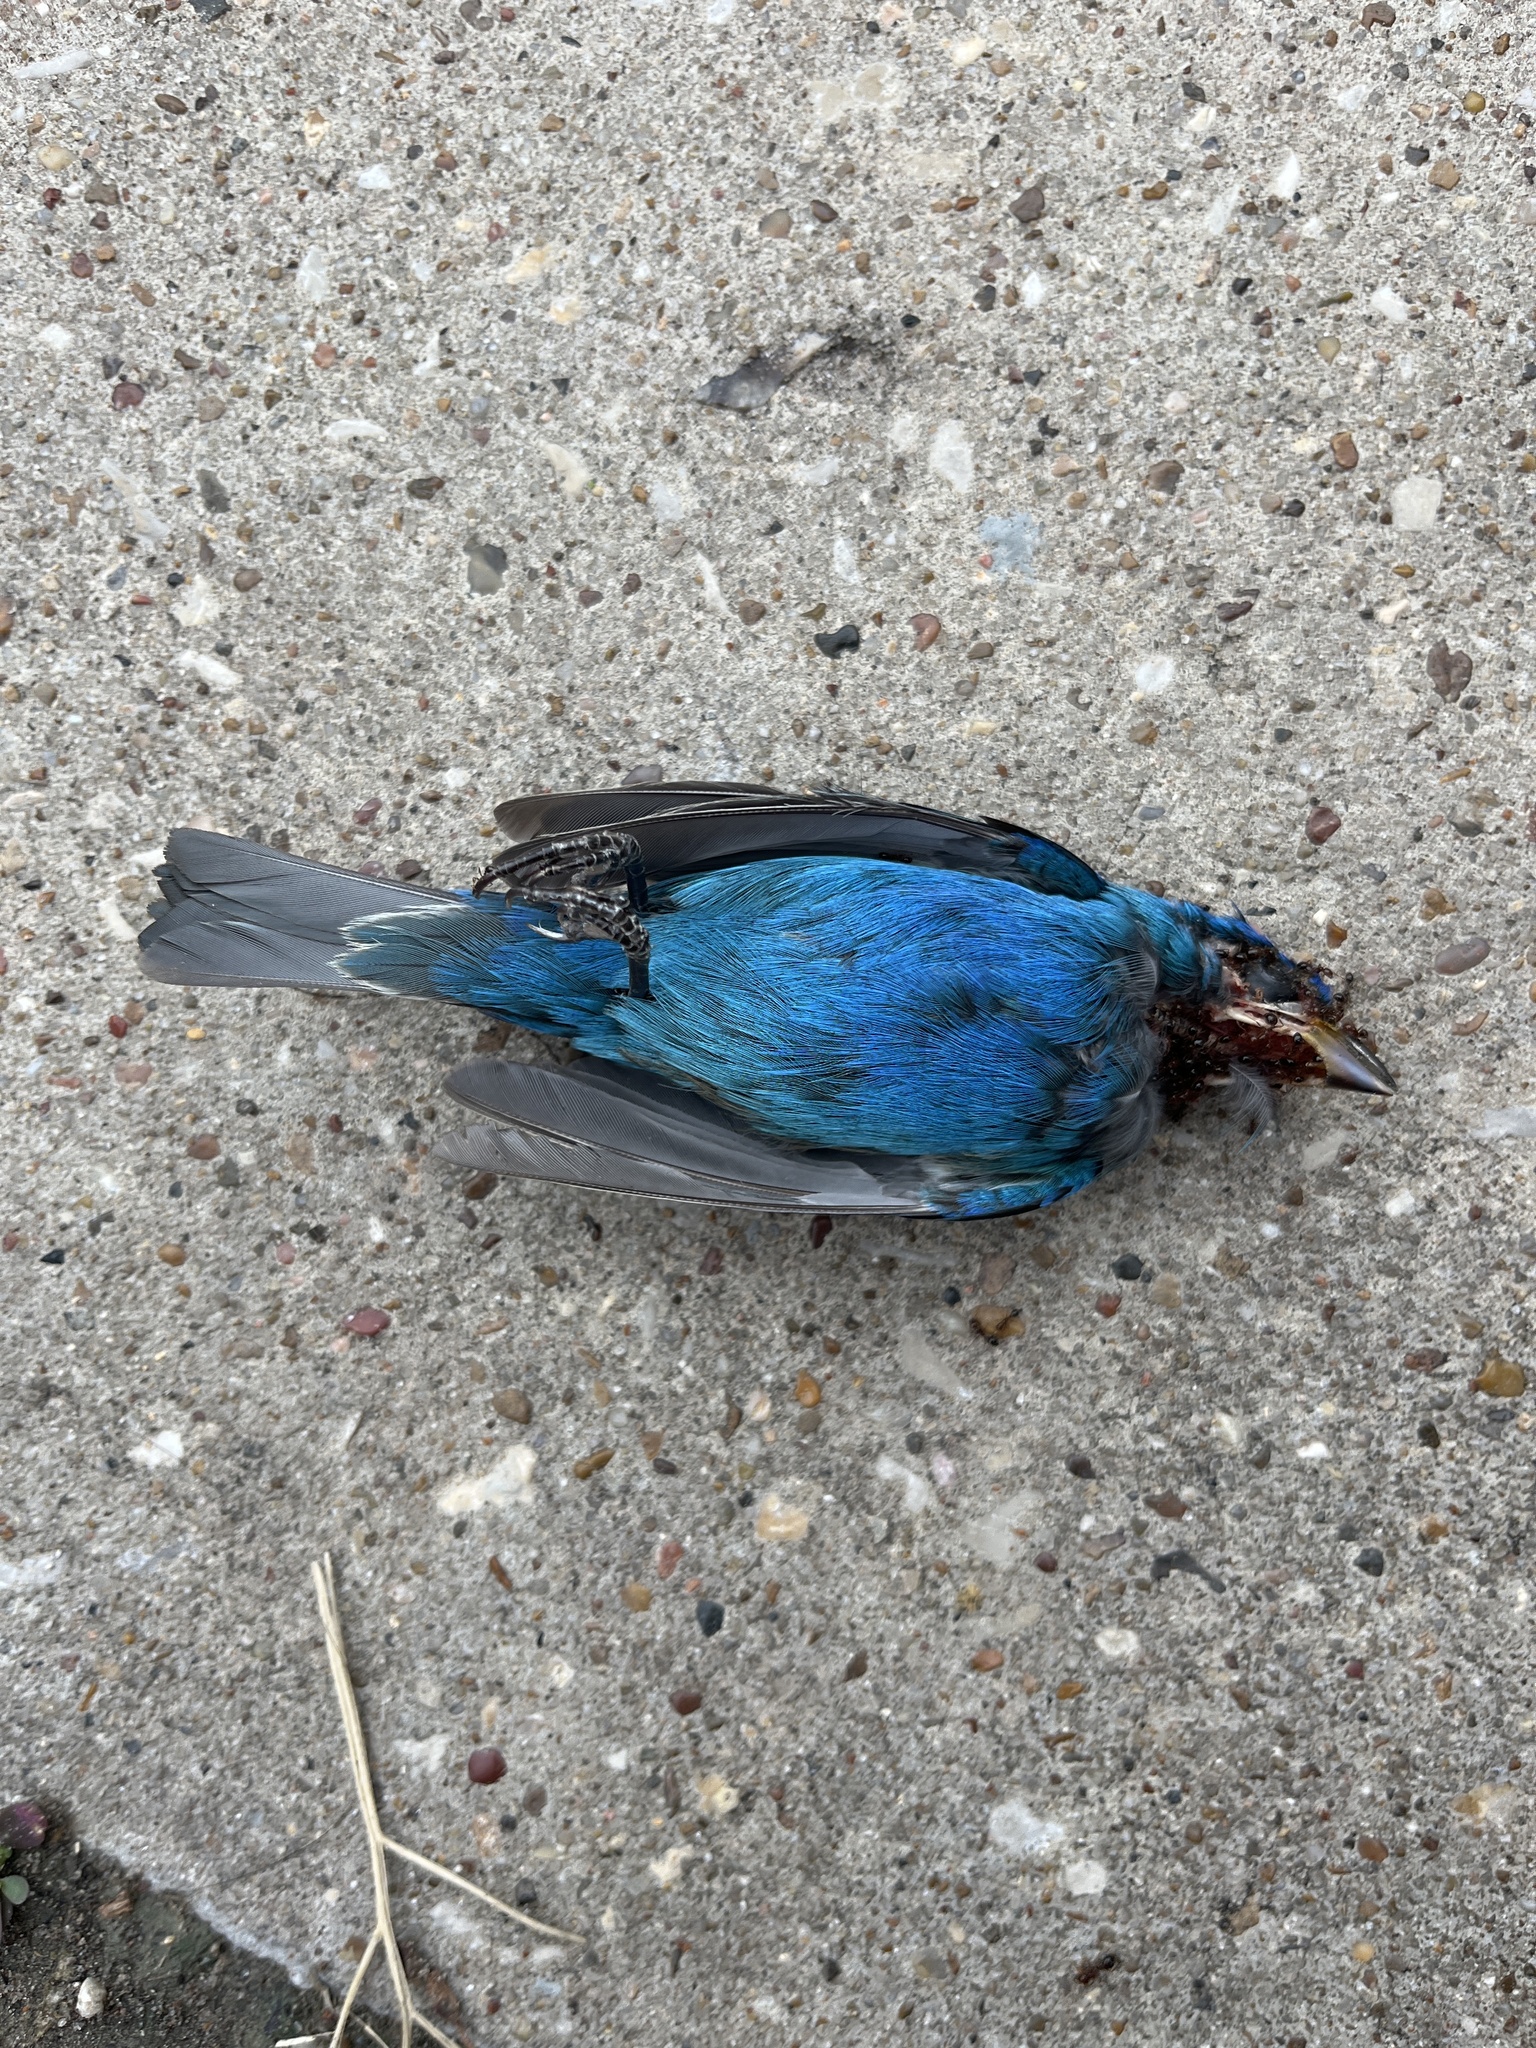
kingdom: Animalia
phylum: Chordata
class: Aves
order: Passeriformes
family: Cardinalidae
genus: Passerina
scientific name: Passerina cyanea
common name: Indigo bunting
